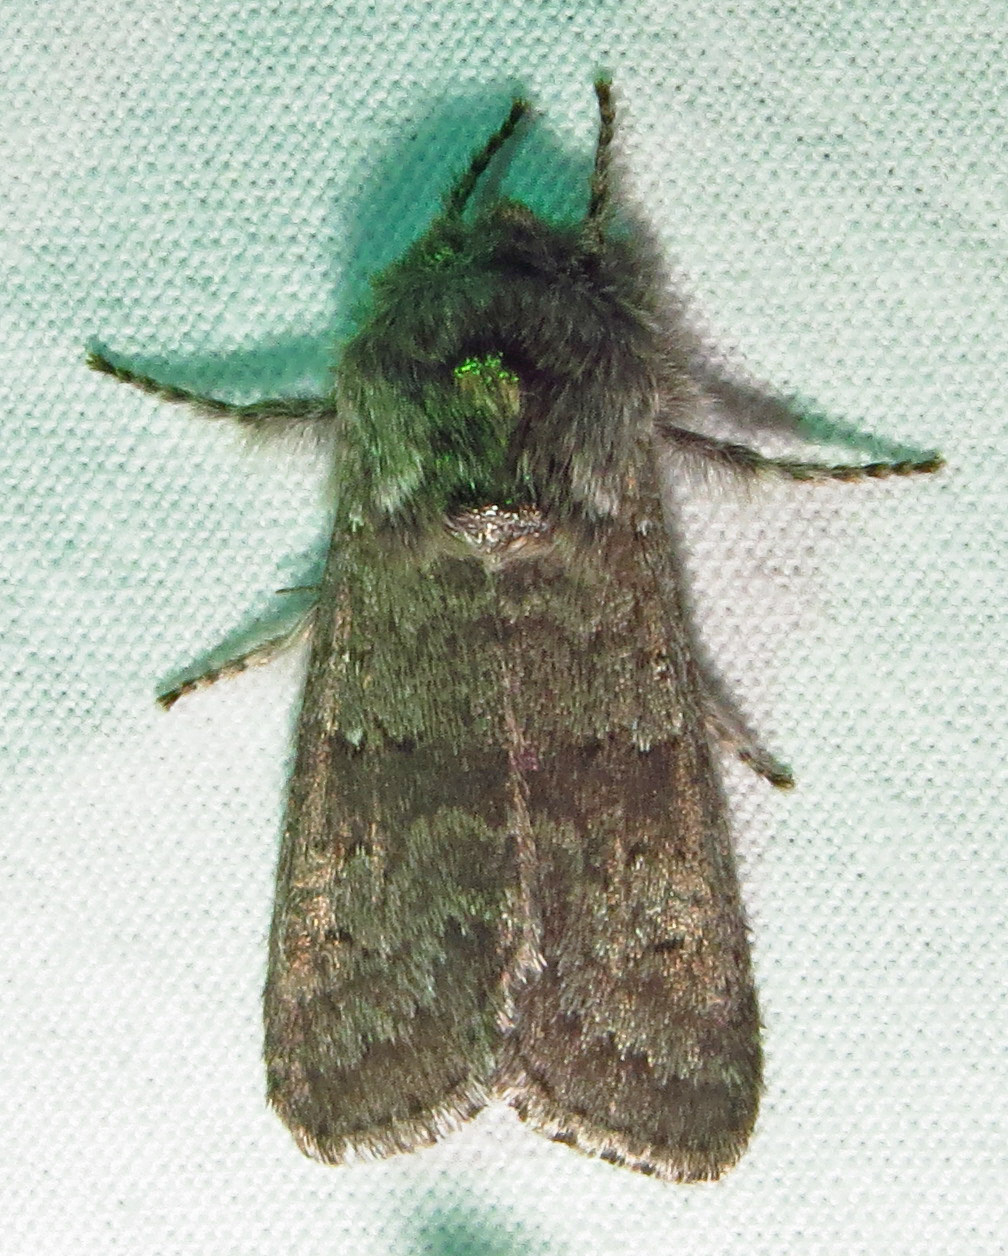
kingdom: Animalia
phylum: Arthropoda
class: Insecta
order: Lepidoptera
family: Noctuidae
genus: Psaphida
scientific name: Psaphida rolandi
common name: Roland's sallow
